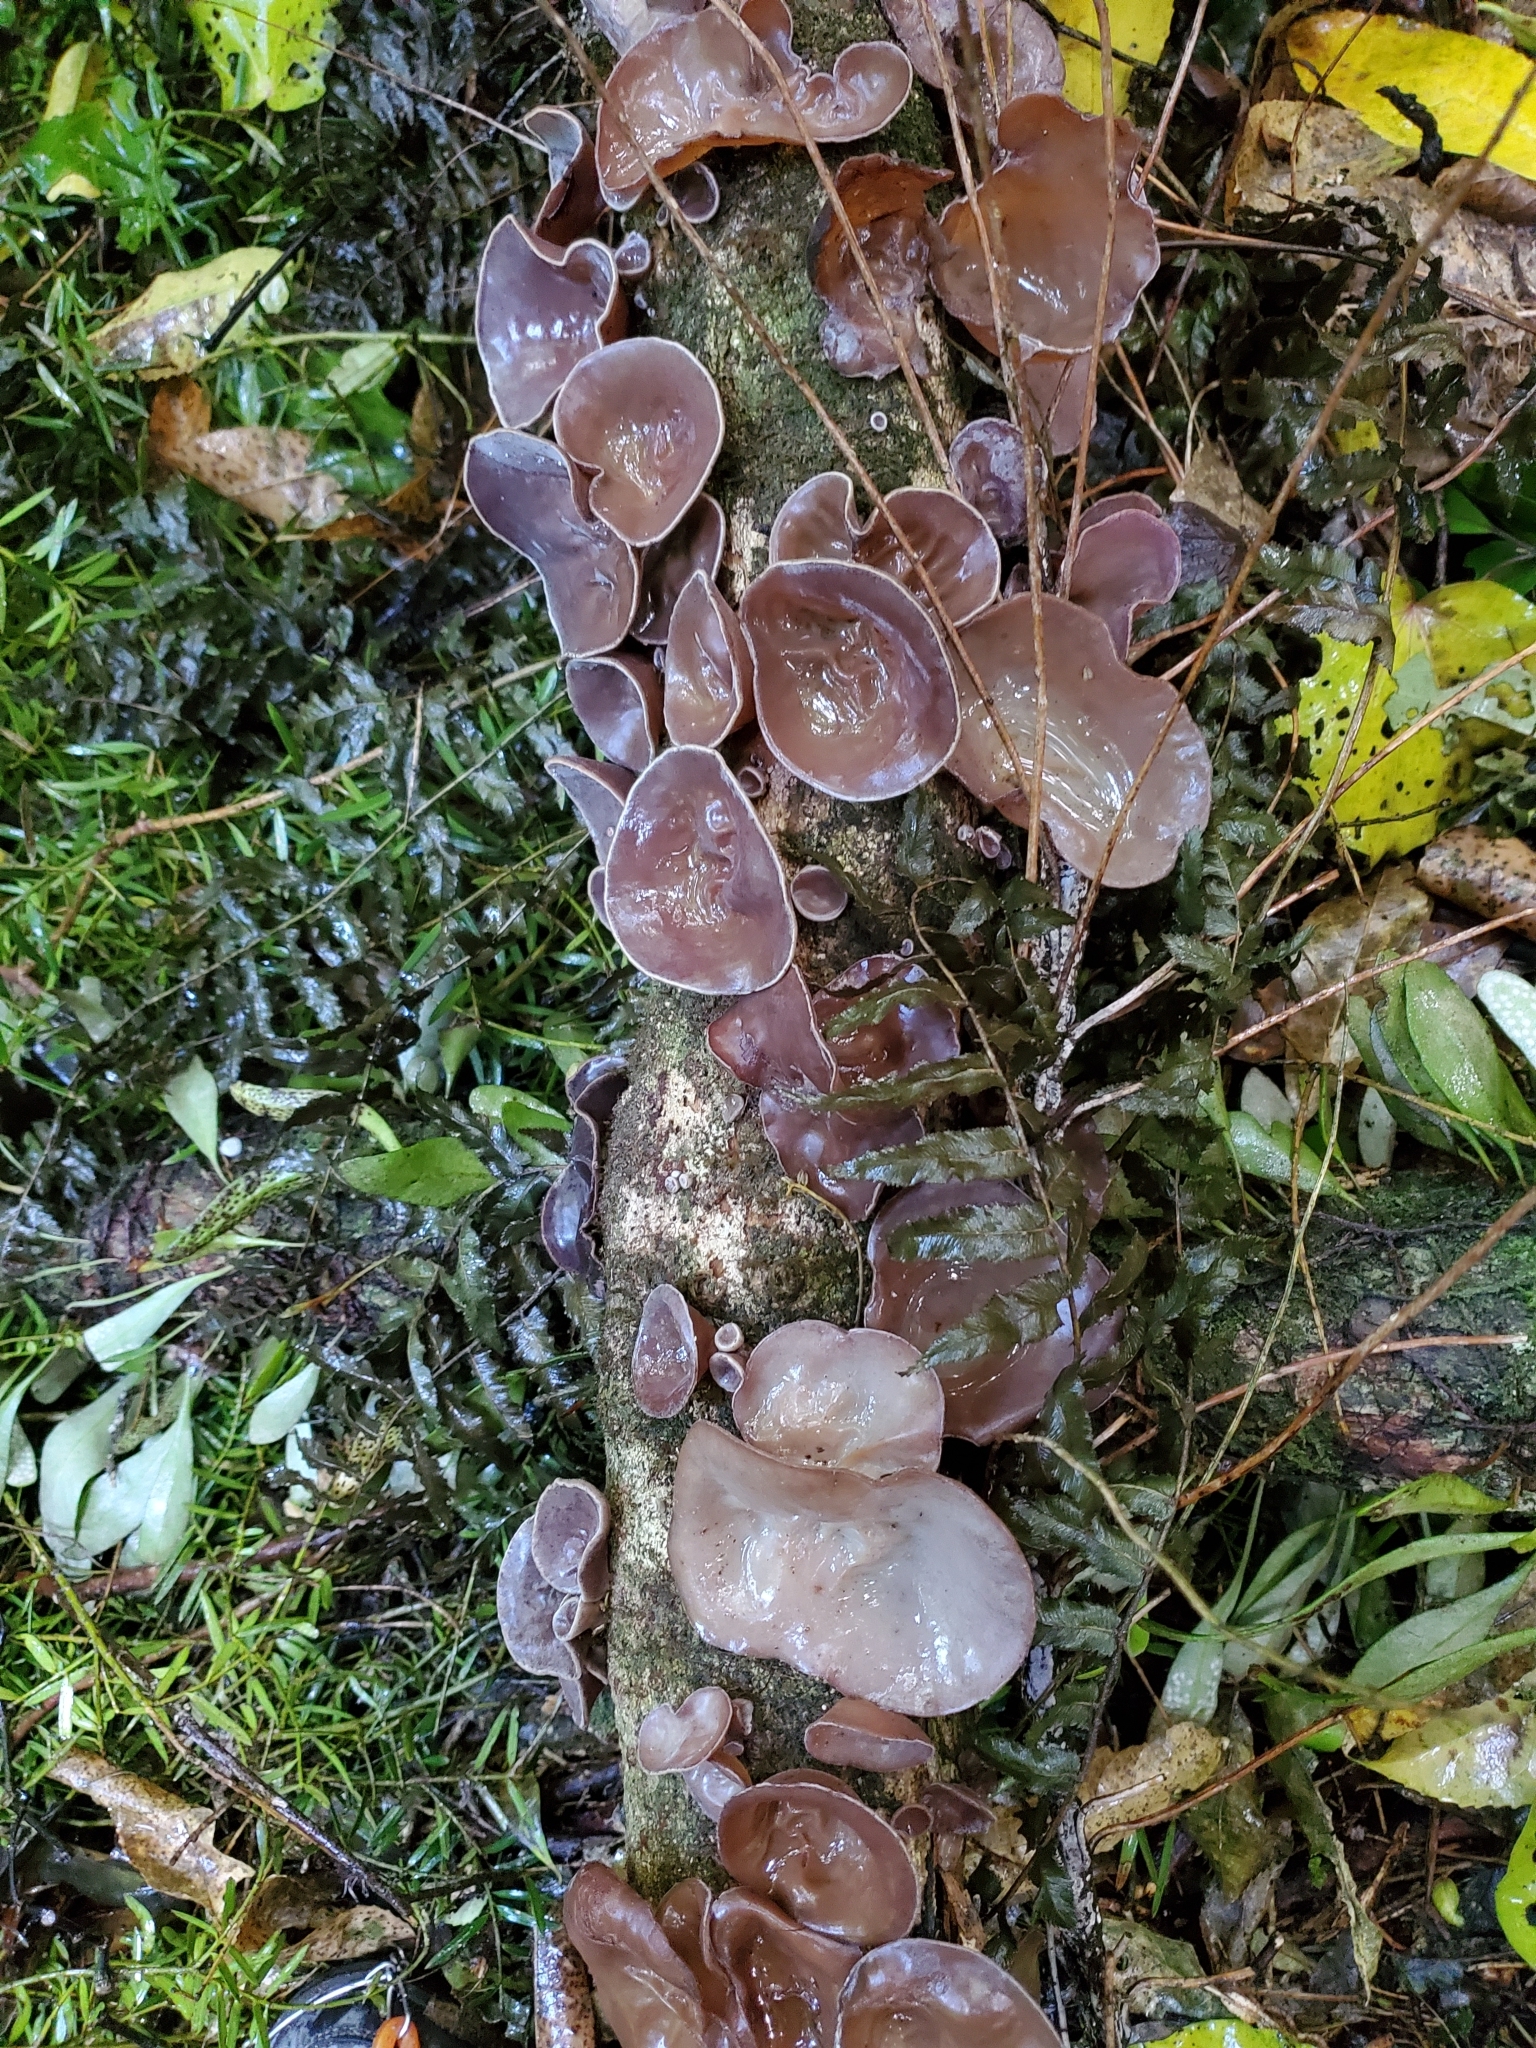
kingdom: Fungi
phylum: Basidiomycota
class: Agaricomycetes
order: Auriculariales
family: Auriculariaceae
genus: Auricularia
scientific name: Auricularia cornea
